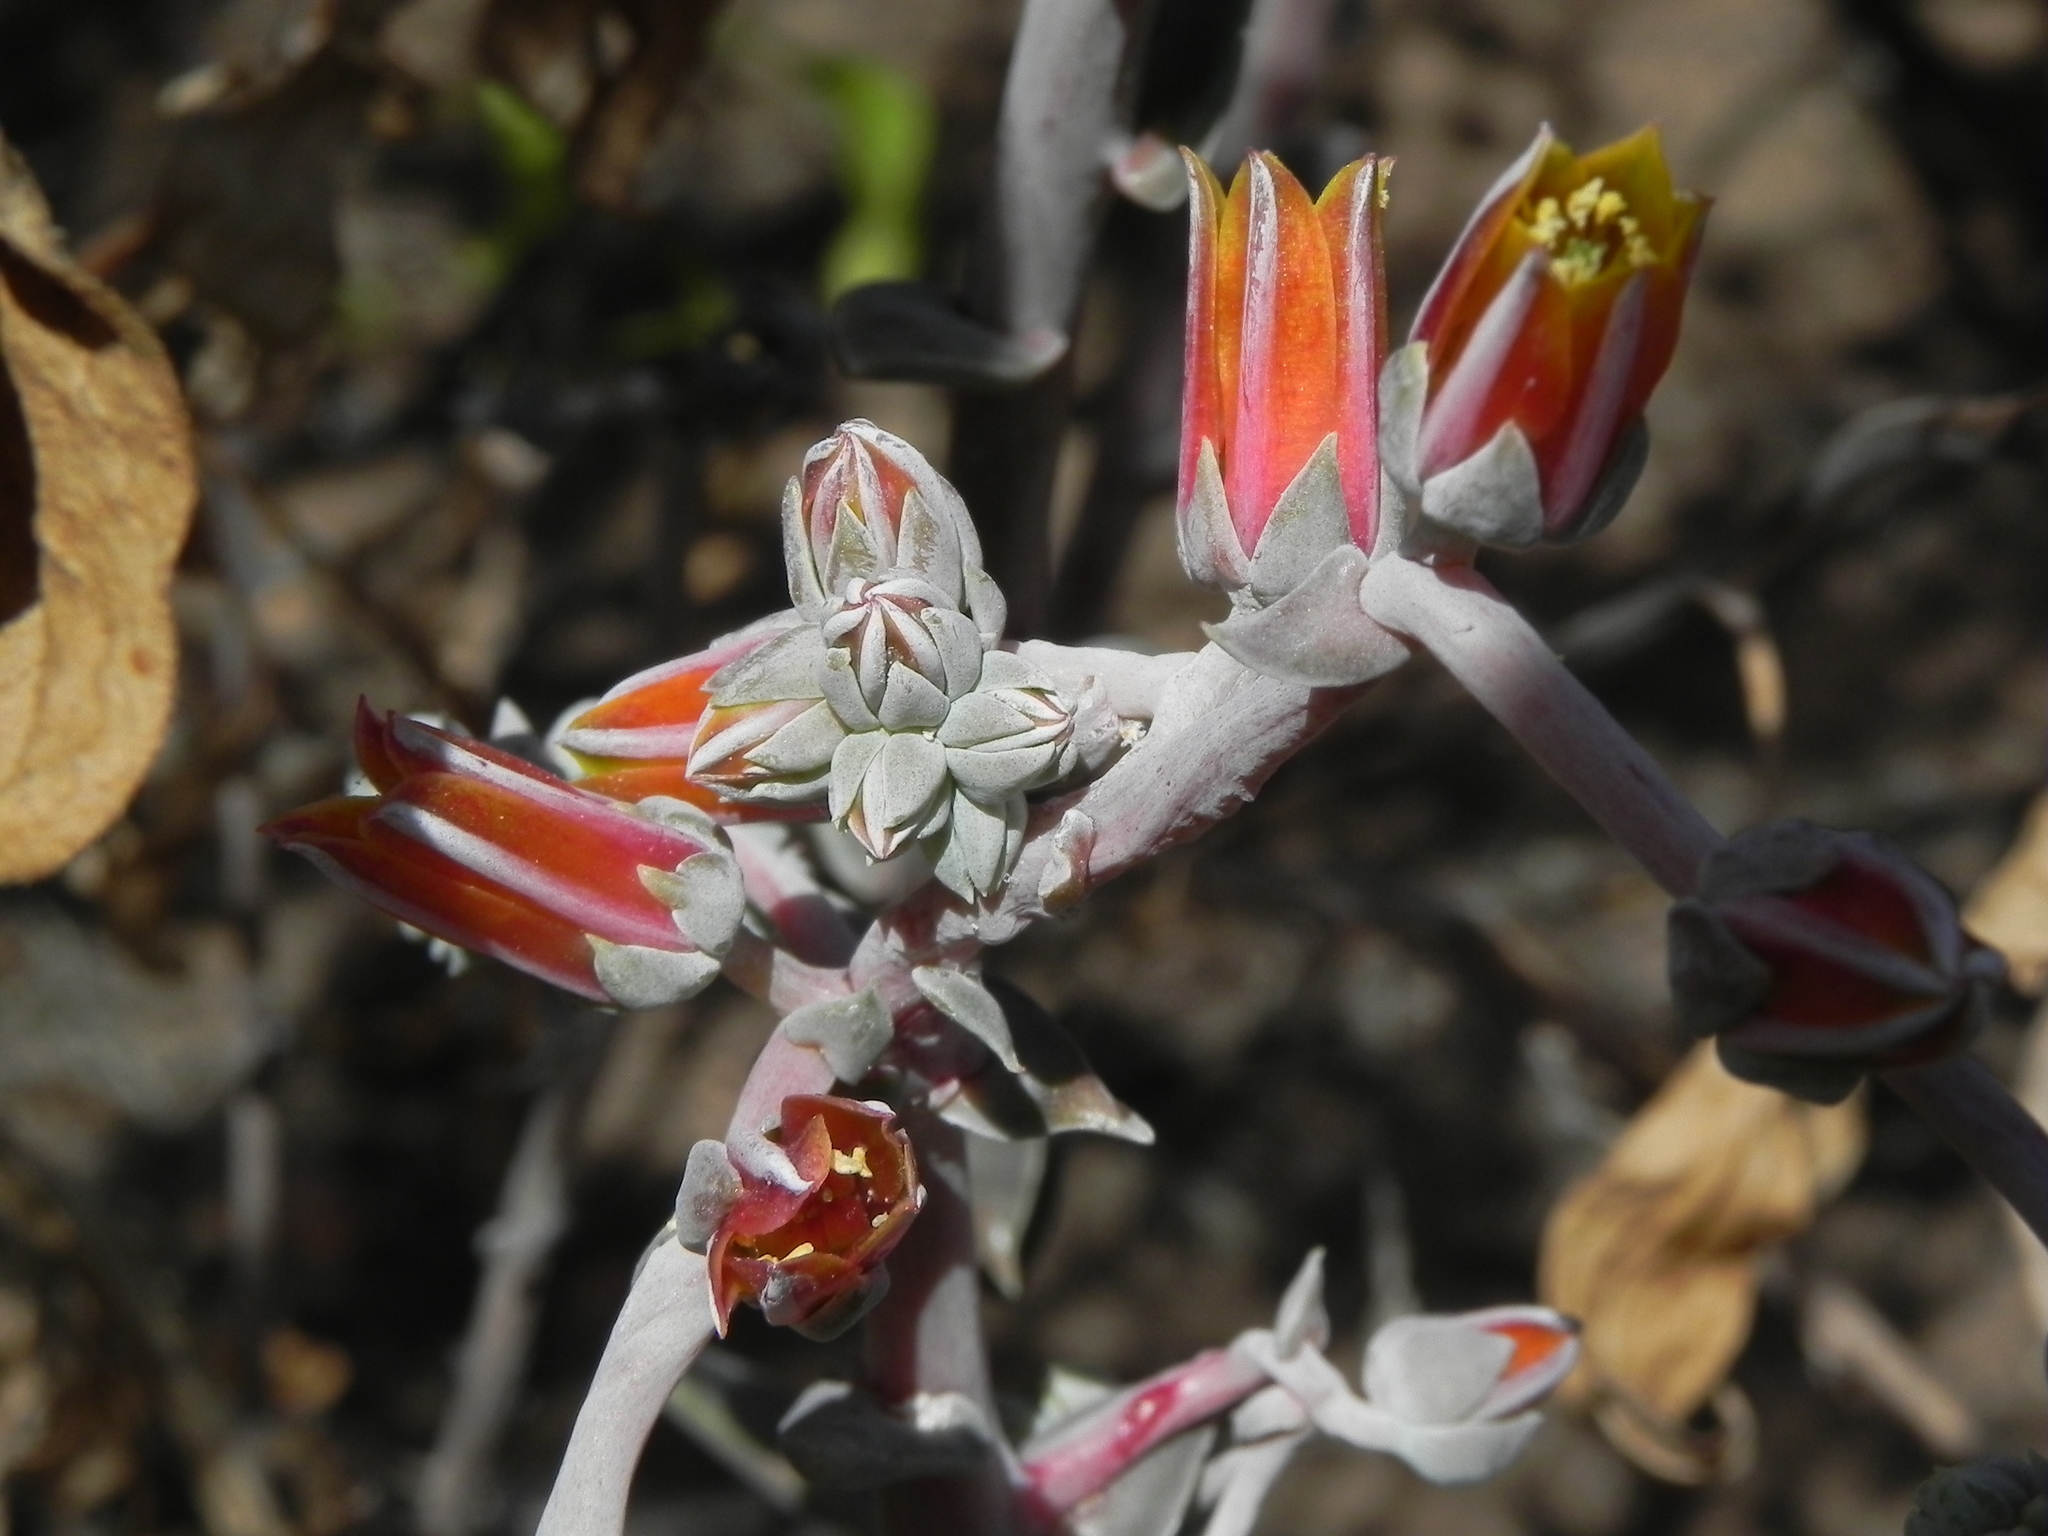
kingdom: Plantae
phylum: Tracheophyta
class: Magnoliopsida
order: Saxifragales
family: Crassulaceae
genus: Dudleya
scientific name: Dudleya lanceolata
